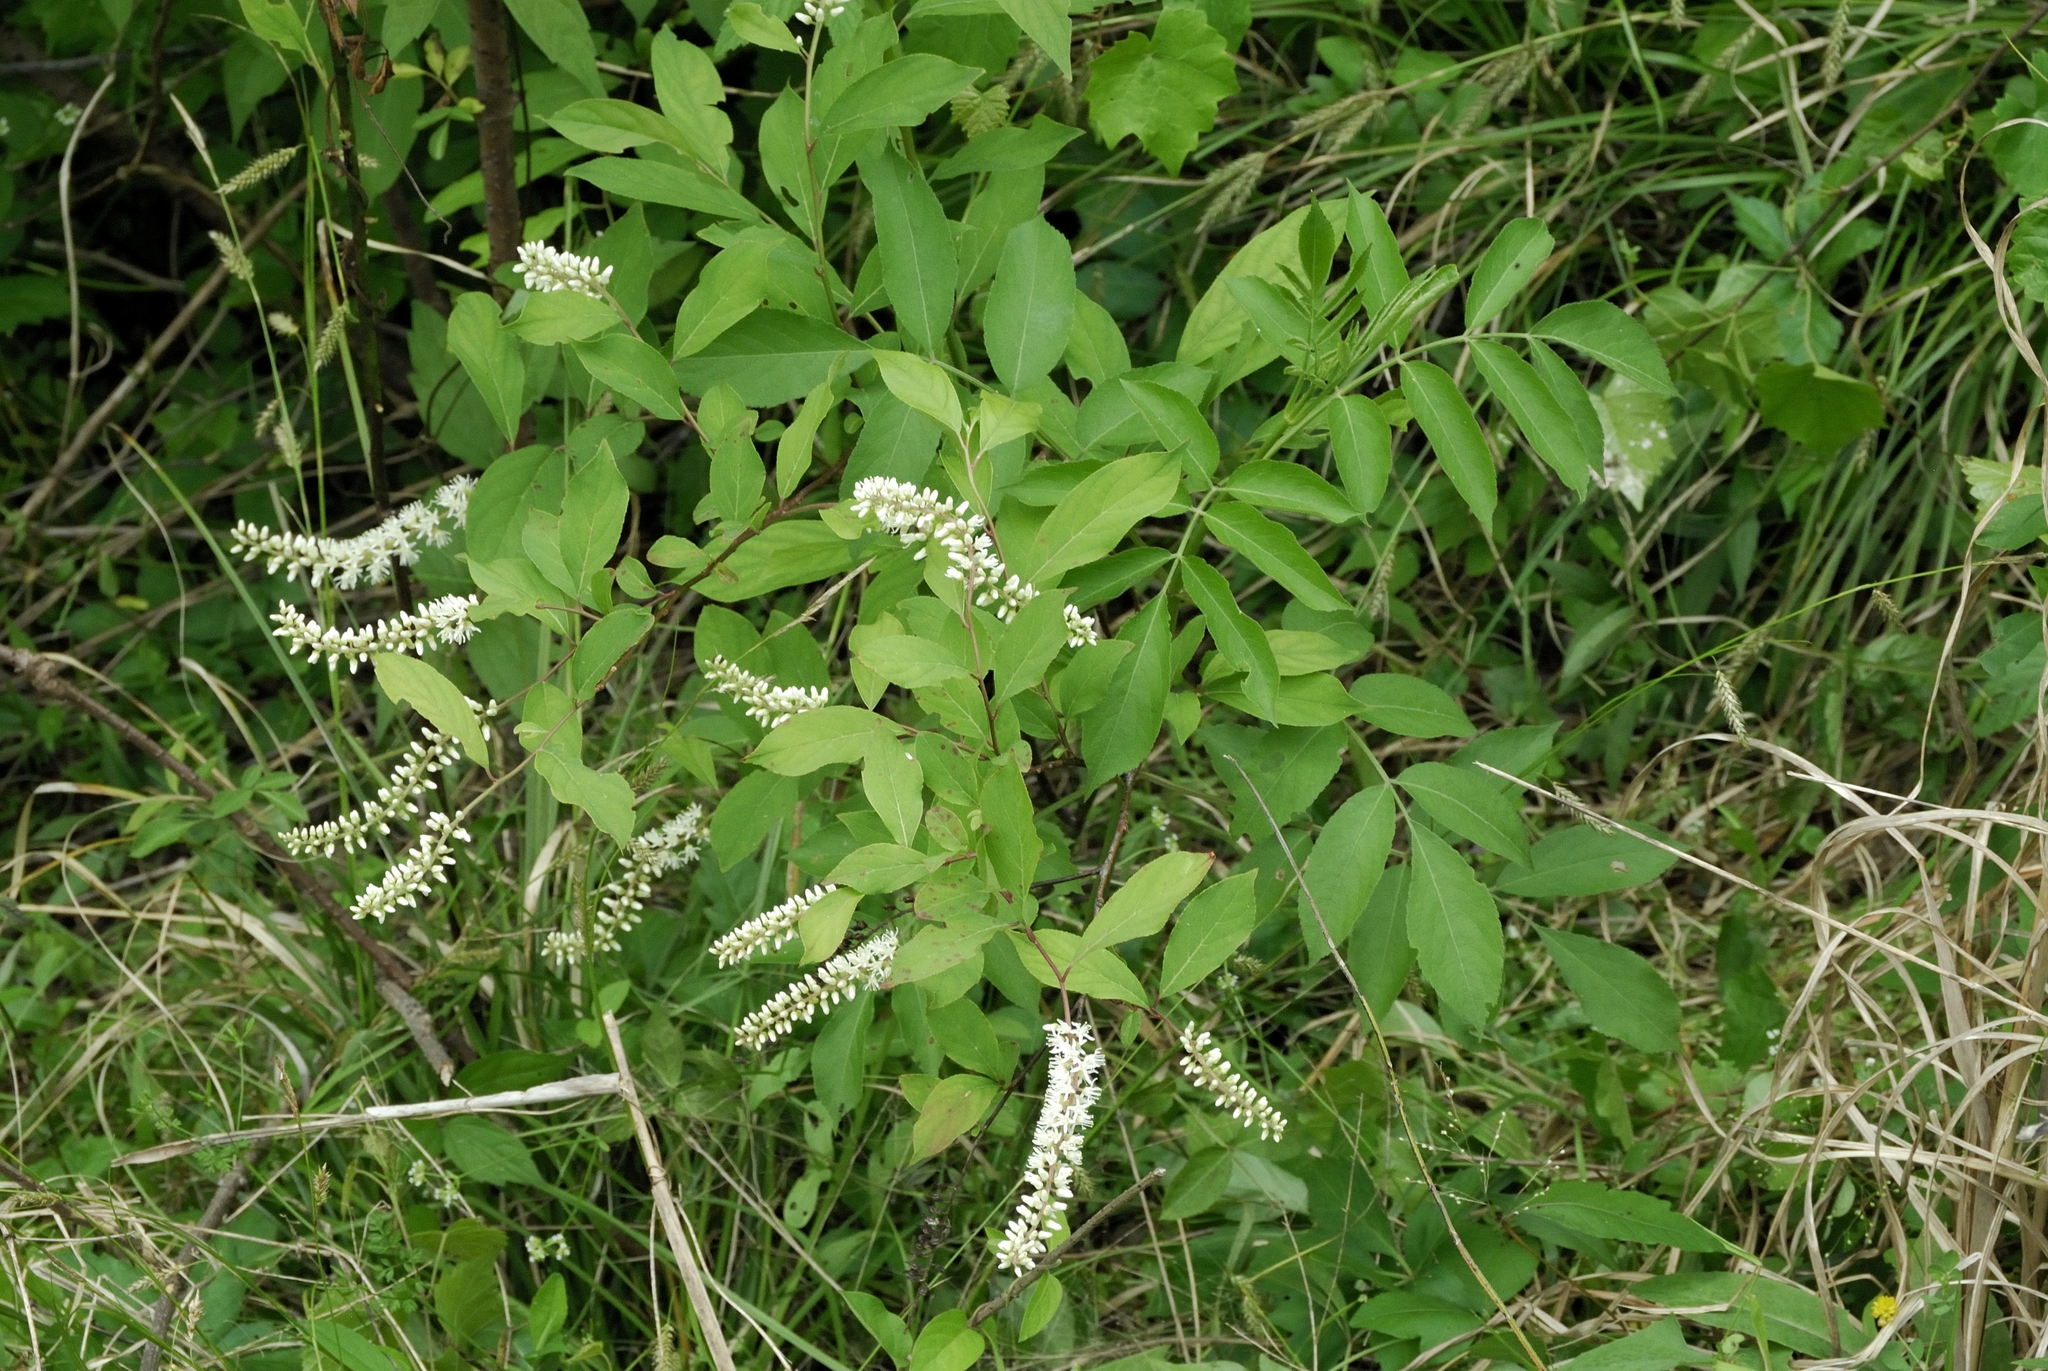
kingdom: Plantae
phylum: Tracheophyta
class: Magnoliopsida
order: Saxifragales
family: Iteaceae
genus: Itea
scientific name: Itea virginica
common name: Sweetspire
